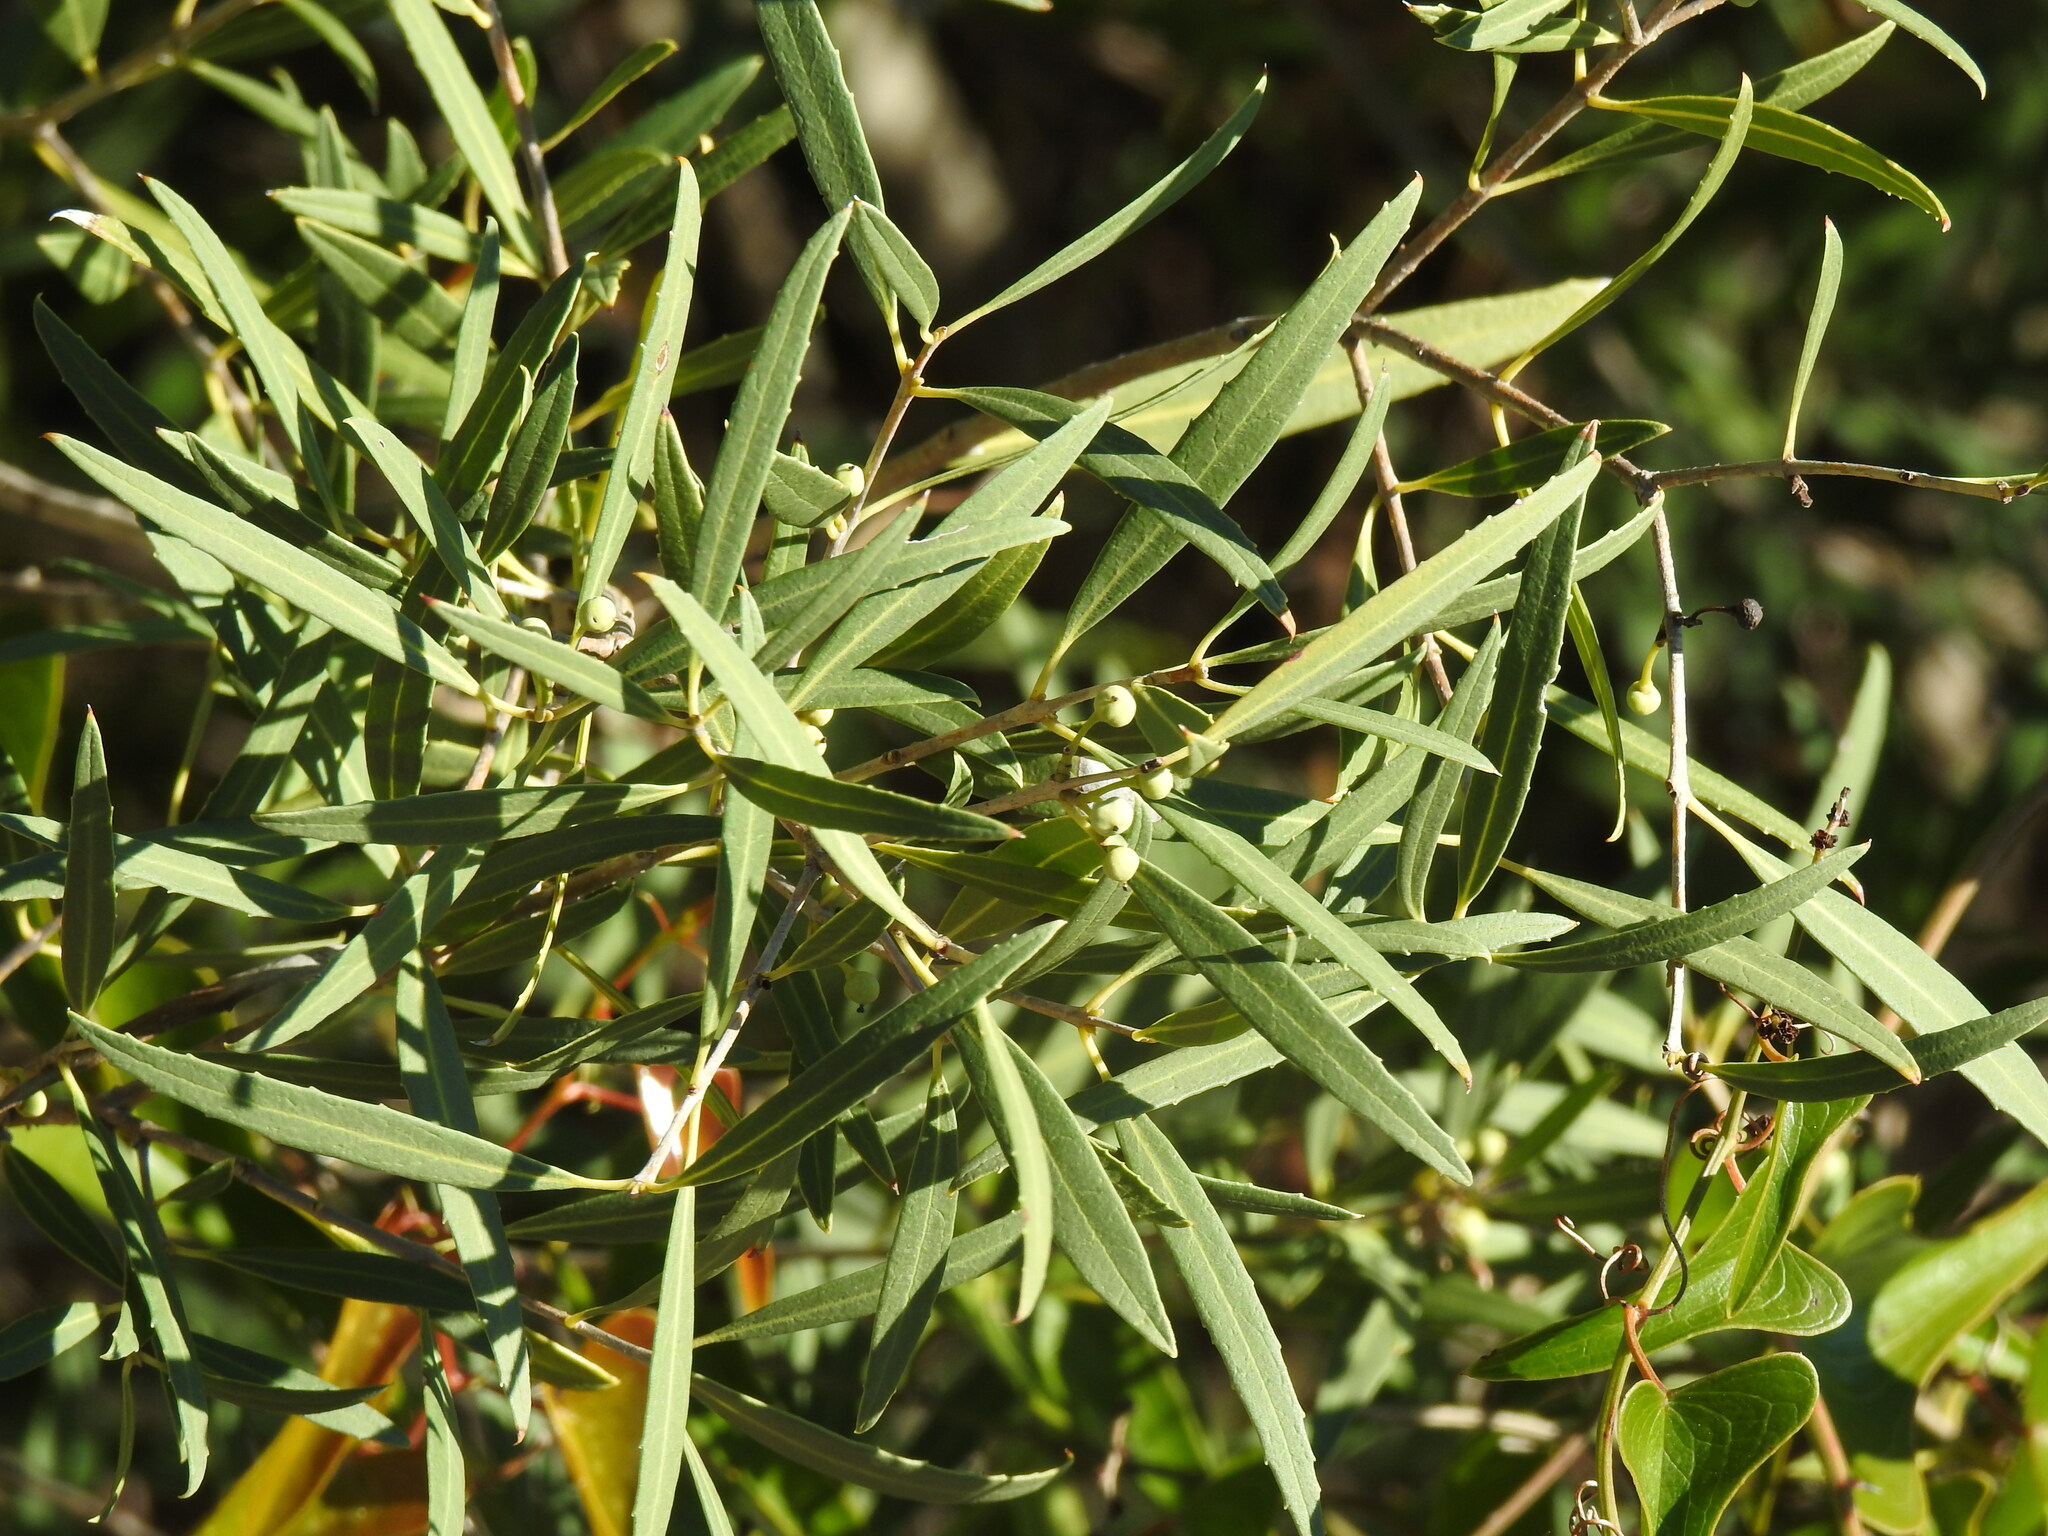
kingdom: Plantae
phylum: Tracheophyta
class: Magnoliopsida
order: Lamiales
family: Oleaceae
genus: Phillyrea
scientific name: Phillyrea angustifolia
